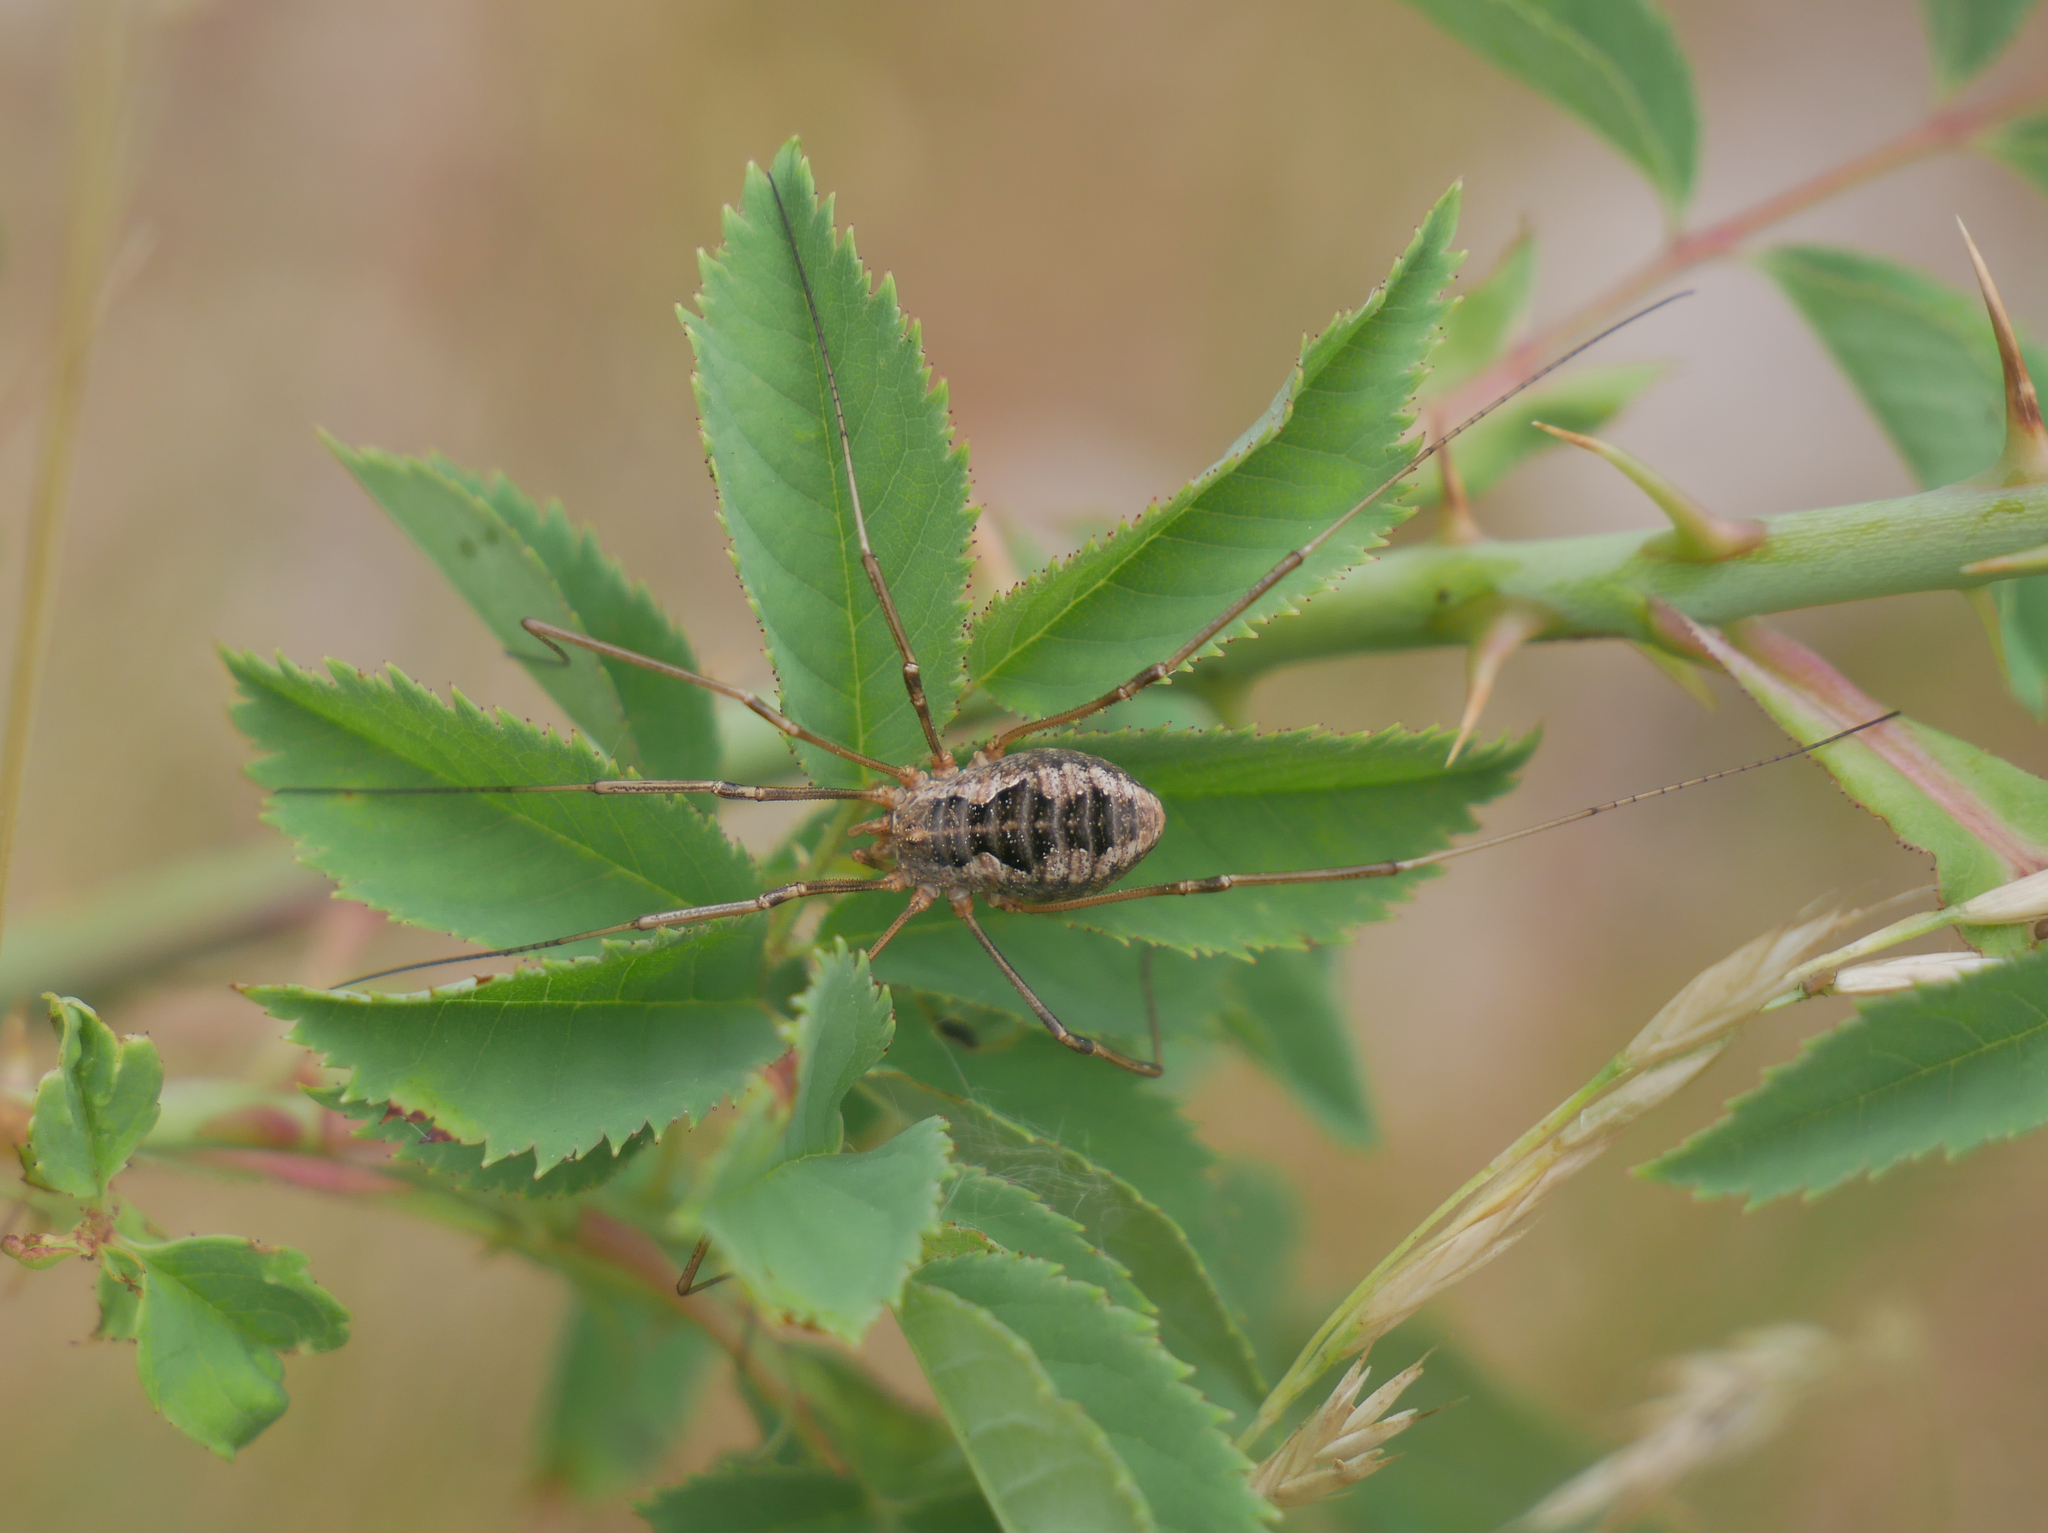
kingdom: Animalia
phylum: Arthropoda
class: Arachnida
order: Opiliones
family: Phalangiidae
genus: Phalangium
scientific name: Phalangium opilio
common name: Daddy longleg
